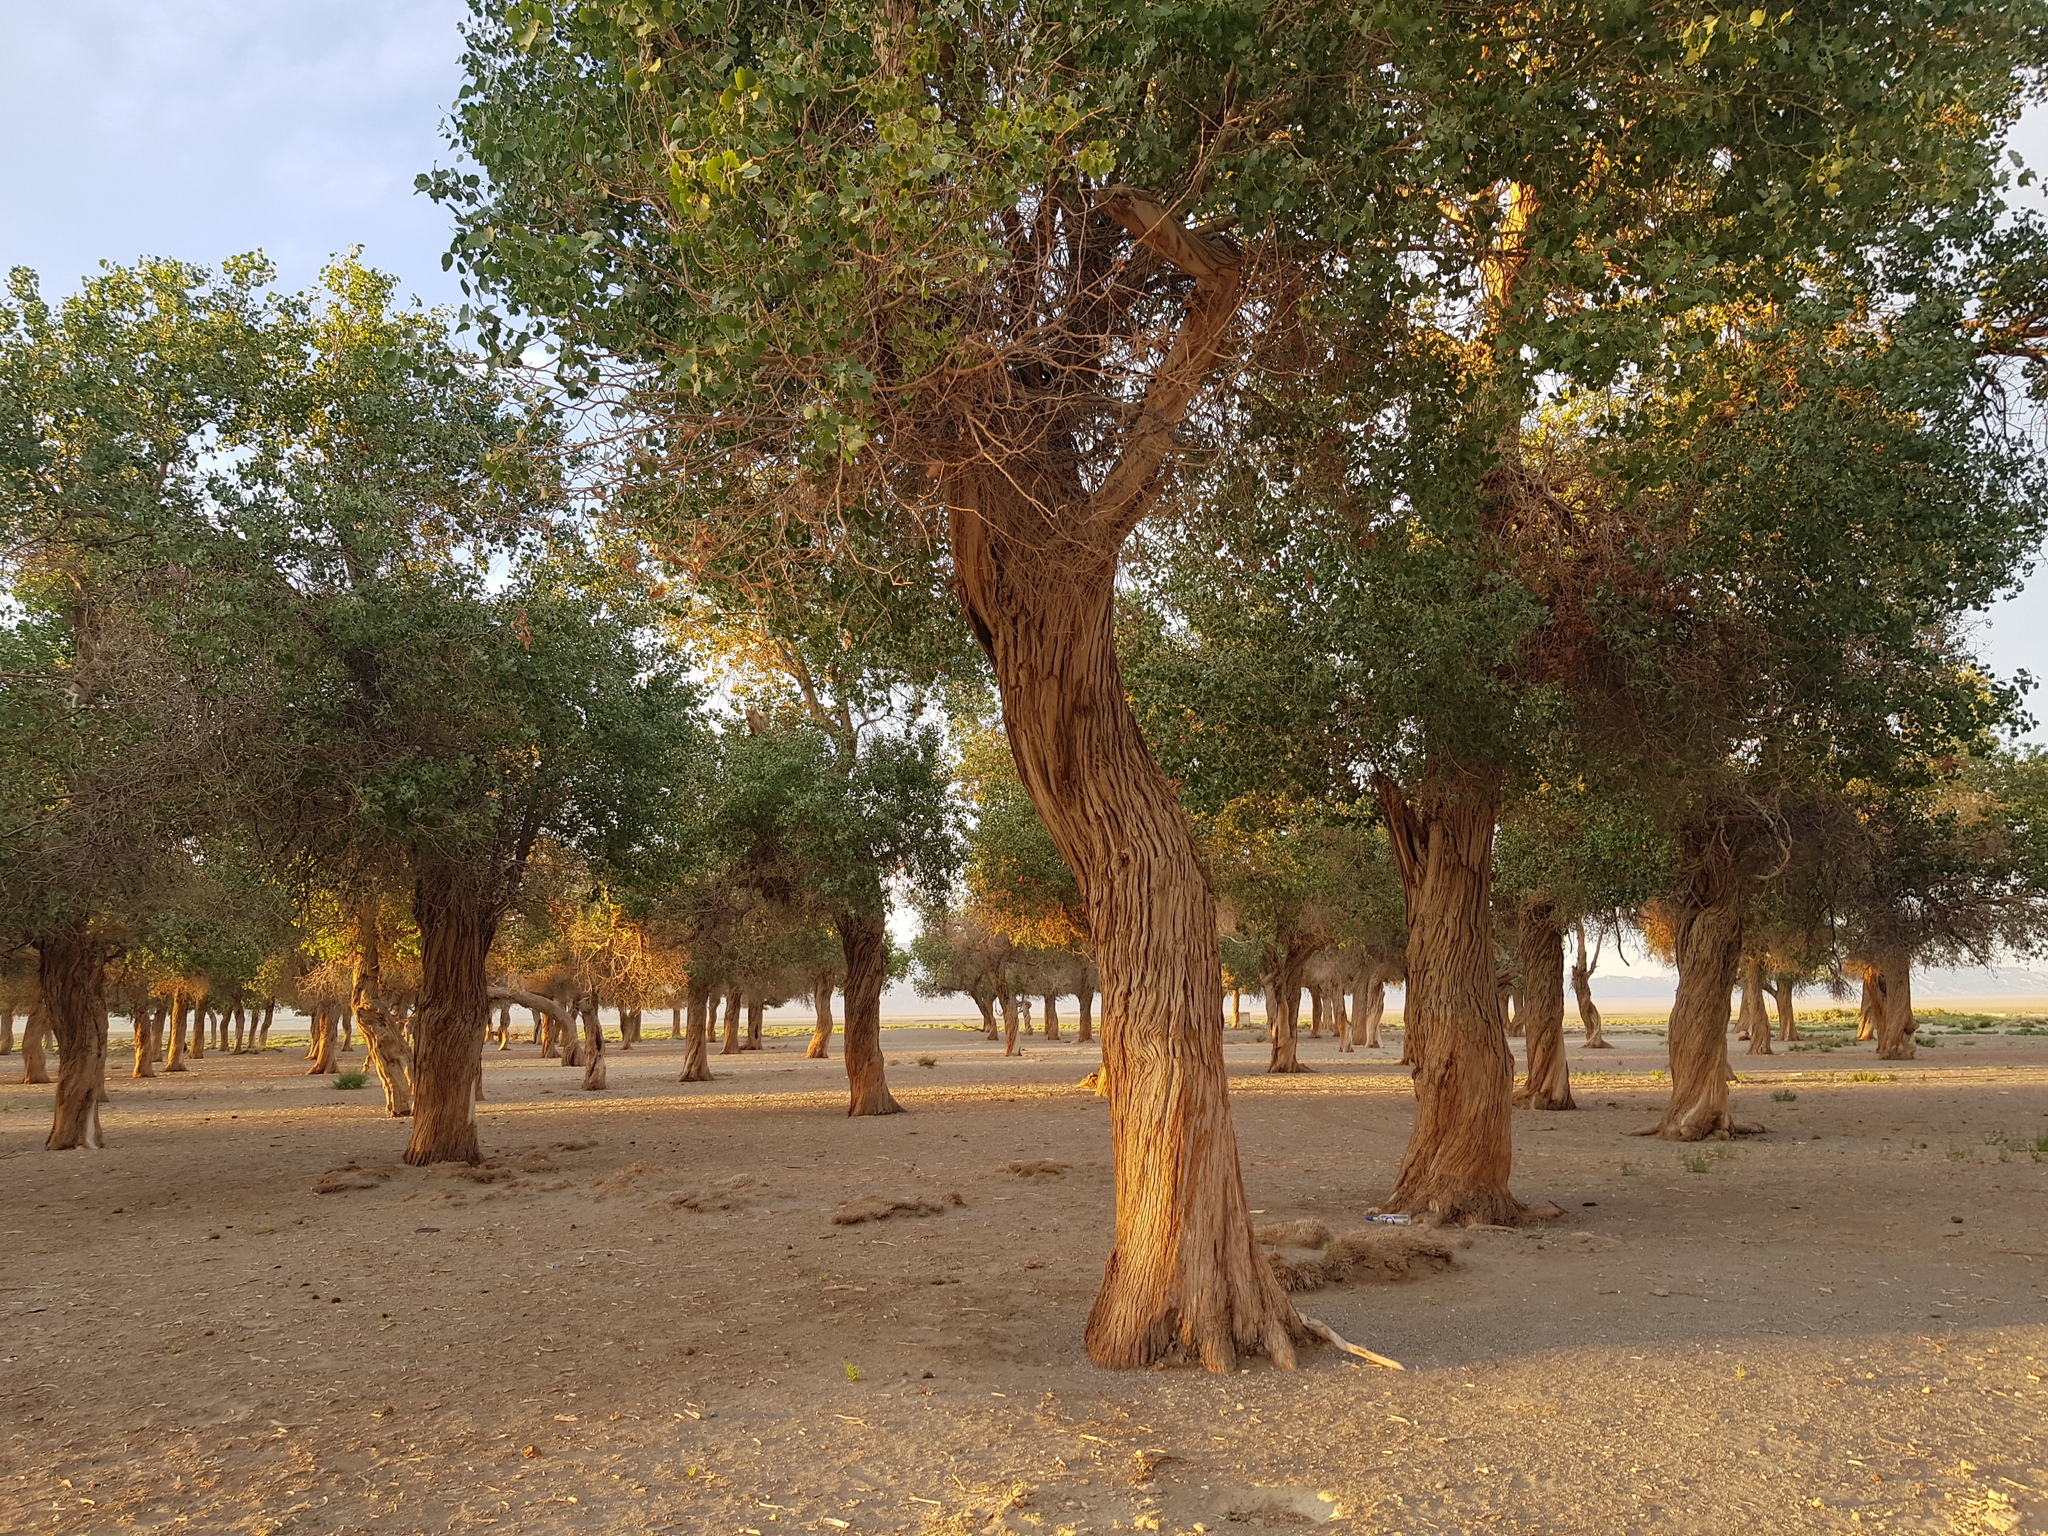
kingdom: Plantae
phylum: Tracheophyta
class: Magnoliopsida
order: Malpighiales
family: Salicaceae
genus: Populus
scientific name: Populus euphratica
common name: Euphrates poplar
